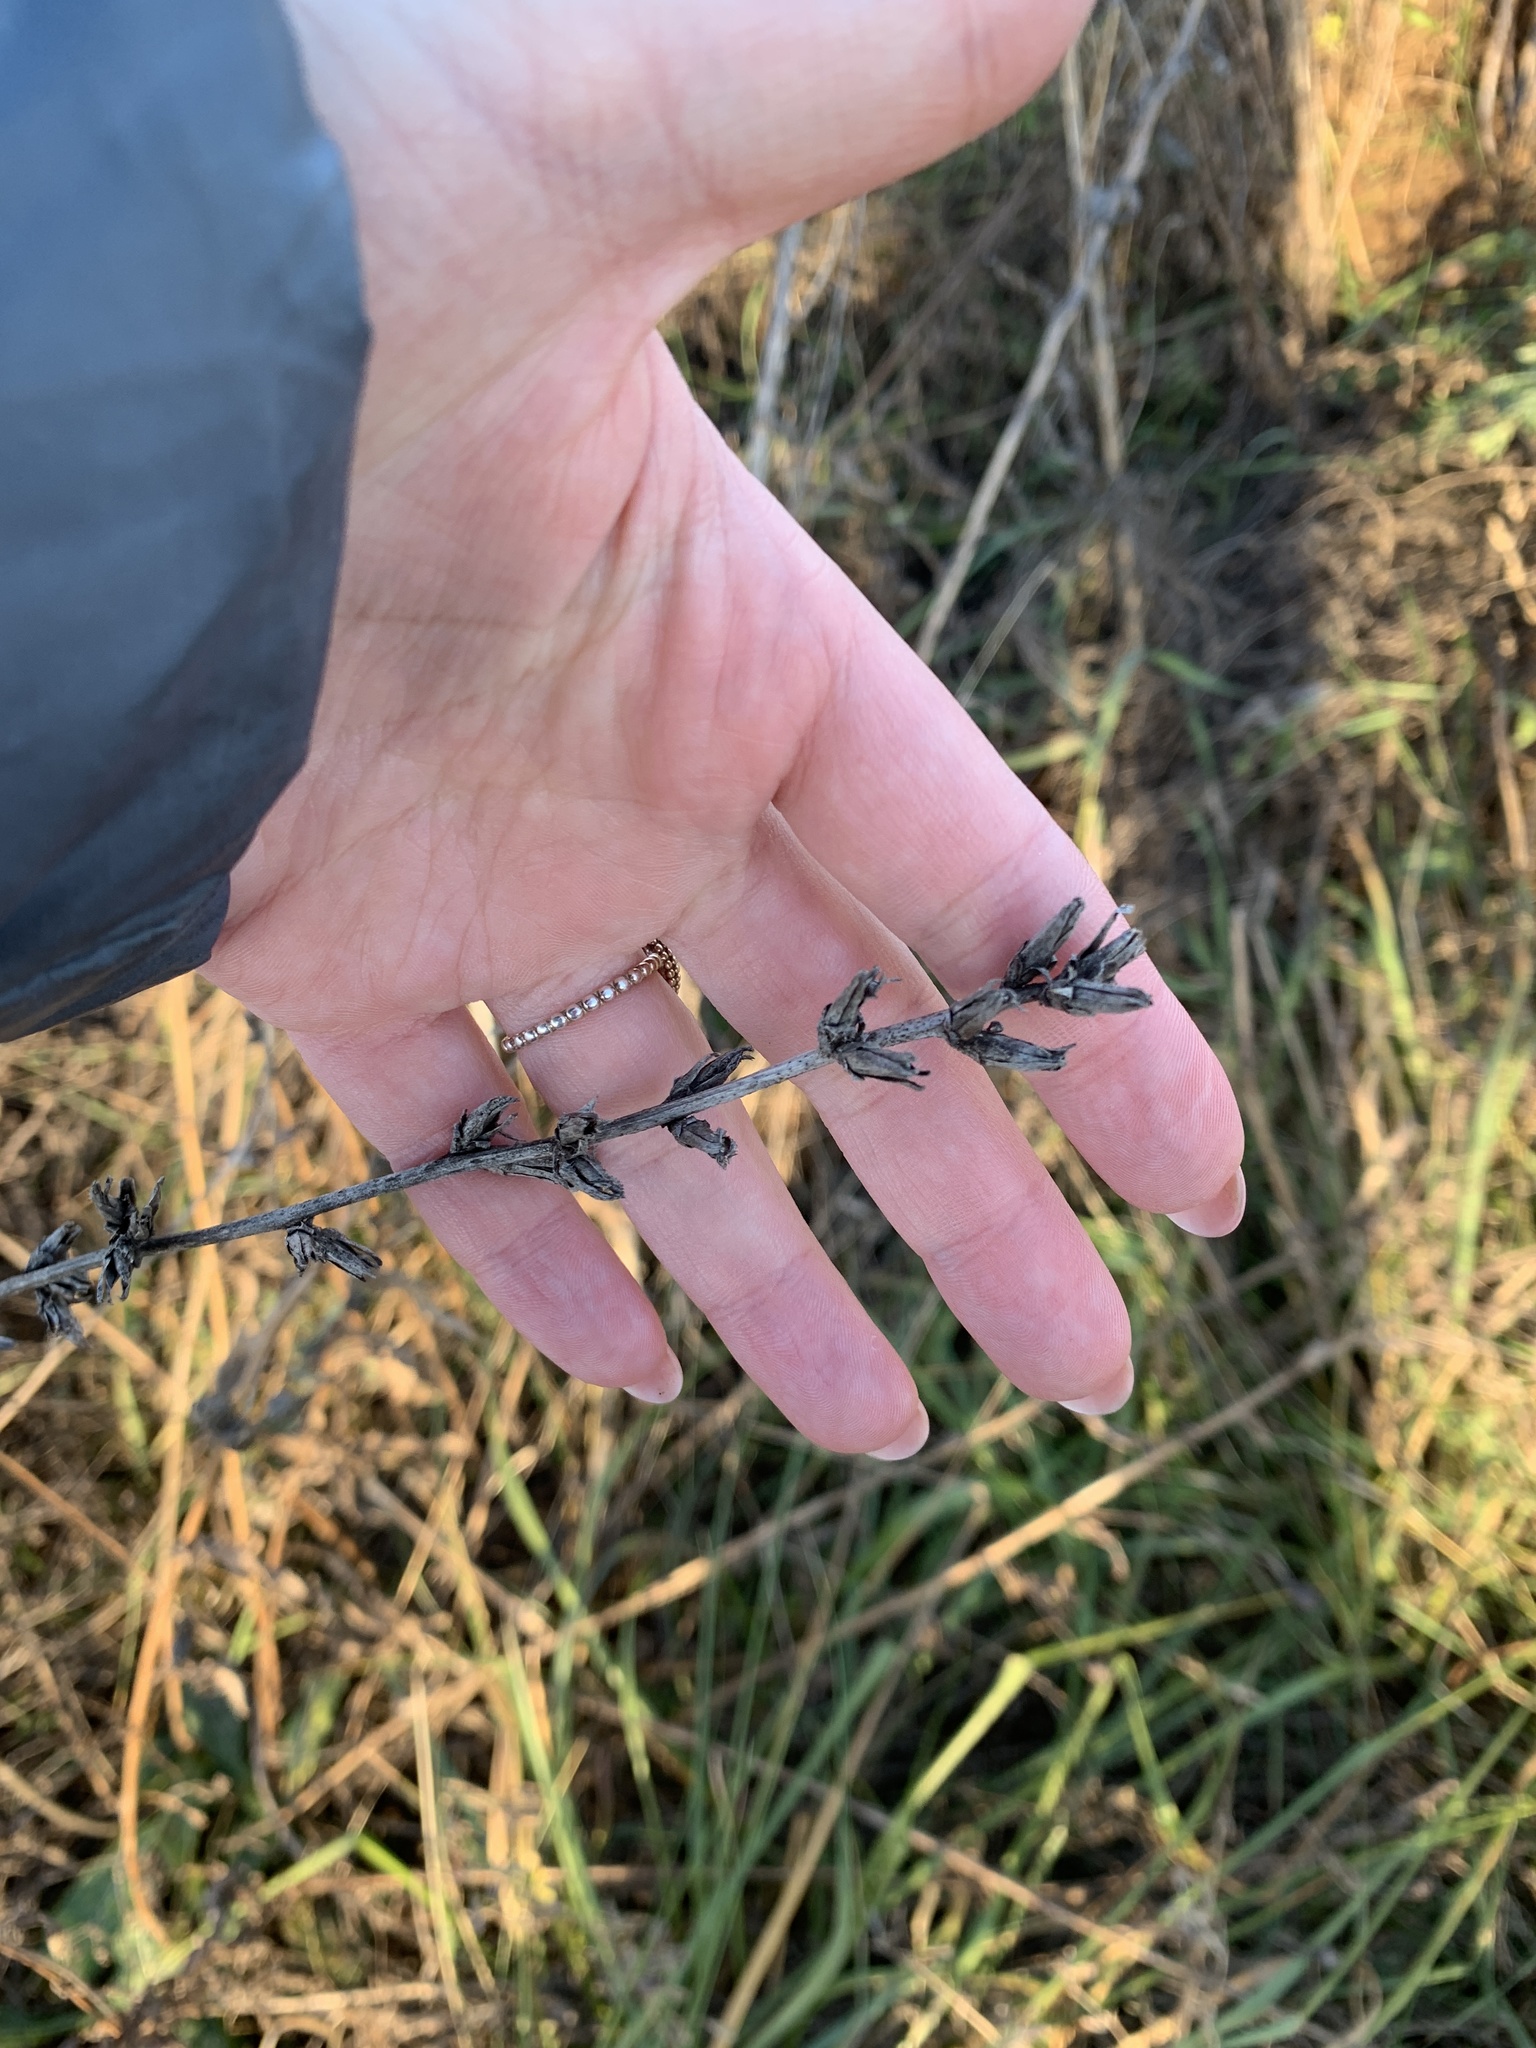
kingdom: Plantae
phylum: Tracheophyta
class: Magnoliopsida
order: Asterales
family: Asteraceae
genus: Cichorium
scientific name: Cichorium intybus
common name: Chicory
